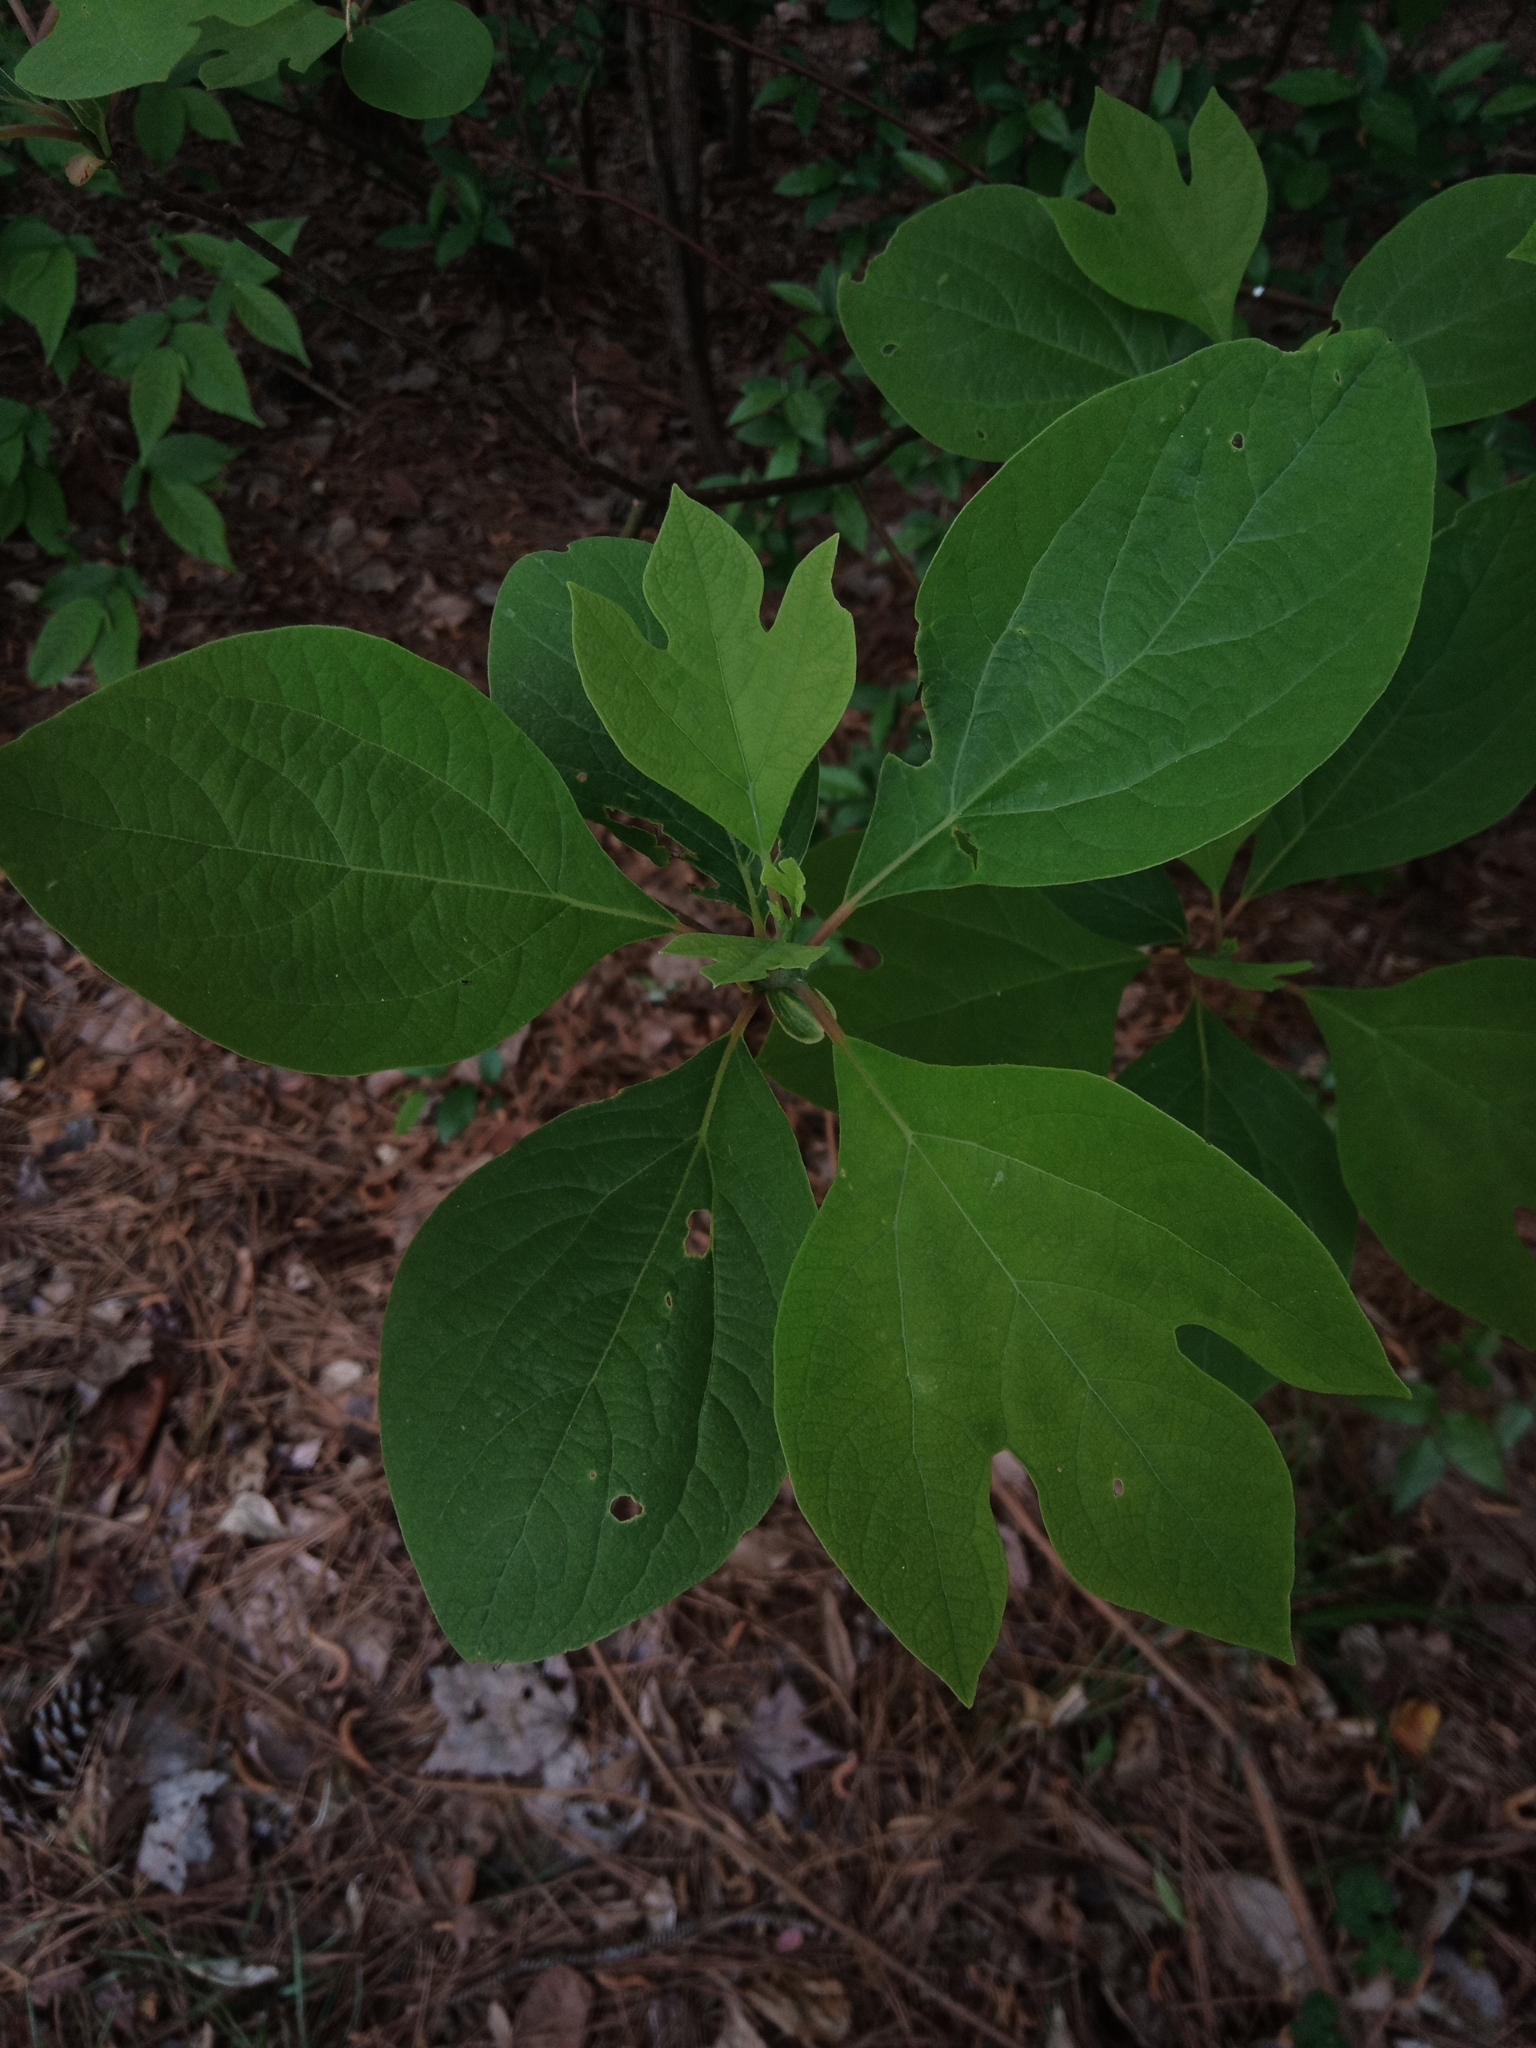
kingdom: Plantae
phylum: Tracheophyta
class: Magnoliopsida
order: Laurales
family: Lauraceae
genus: Sassafras
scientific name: Sassafras albidum
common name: Sassafras
